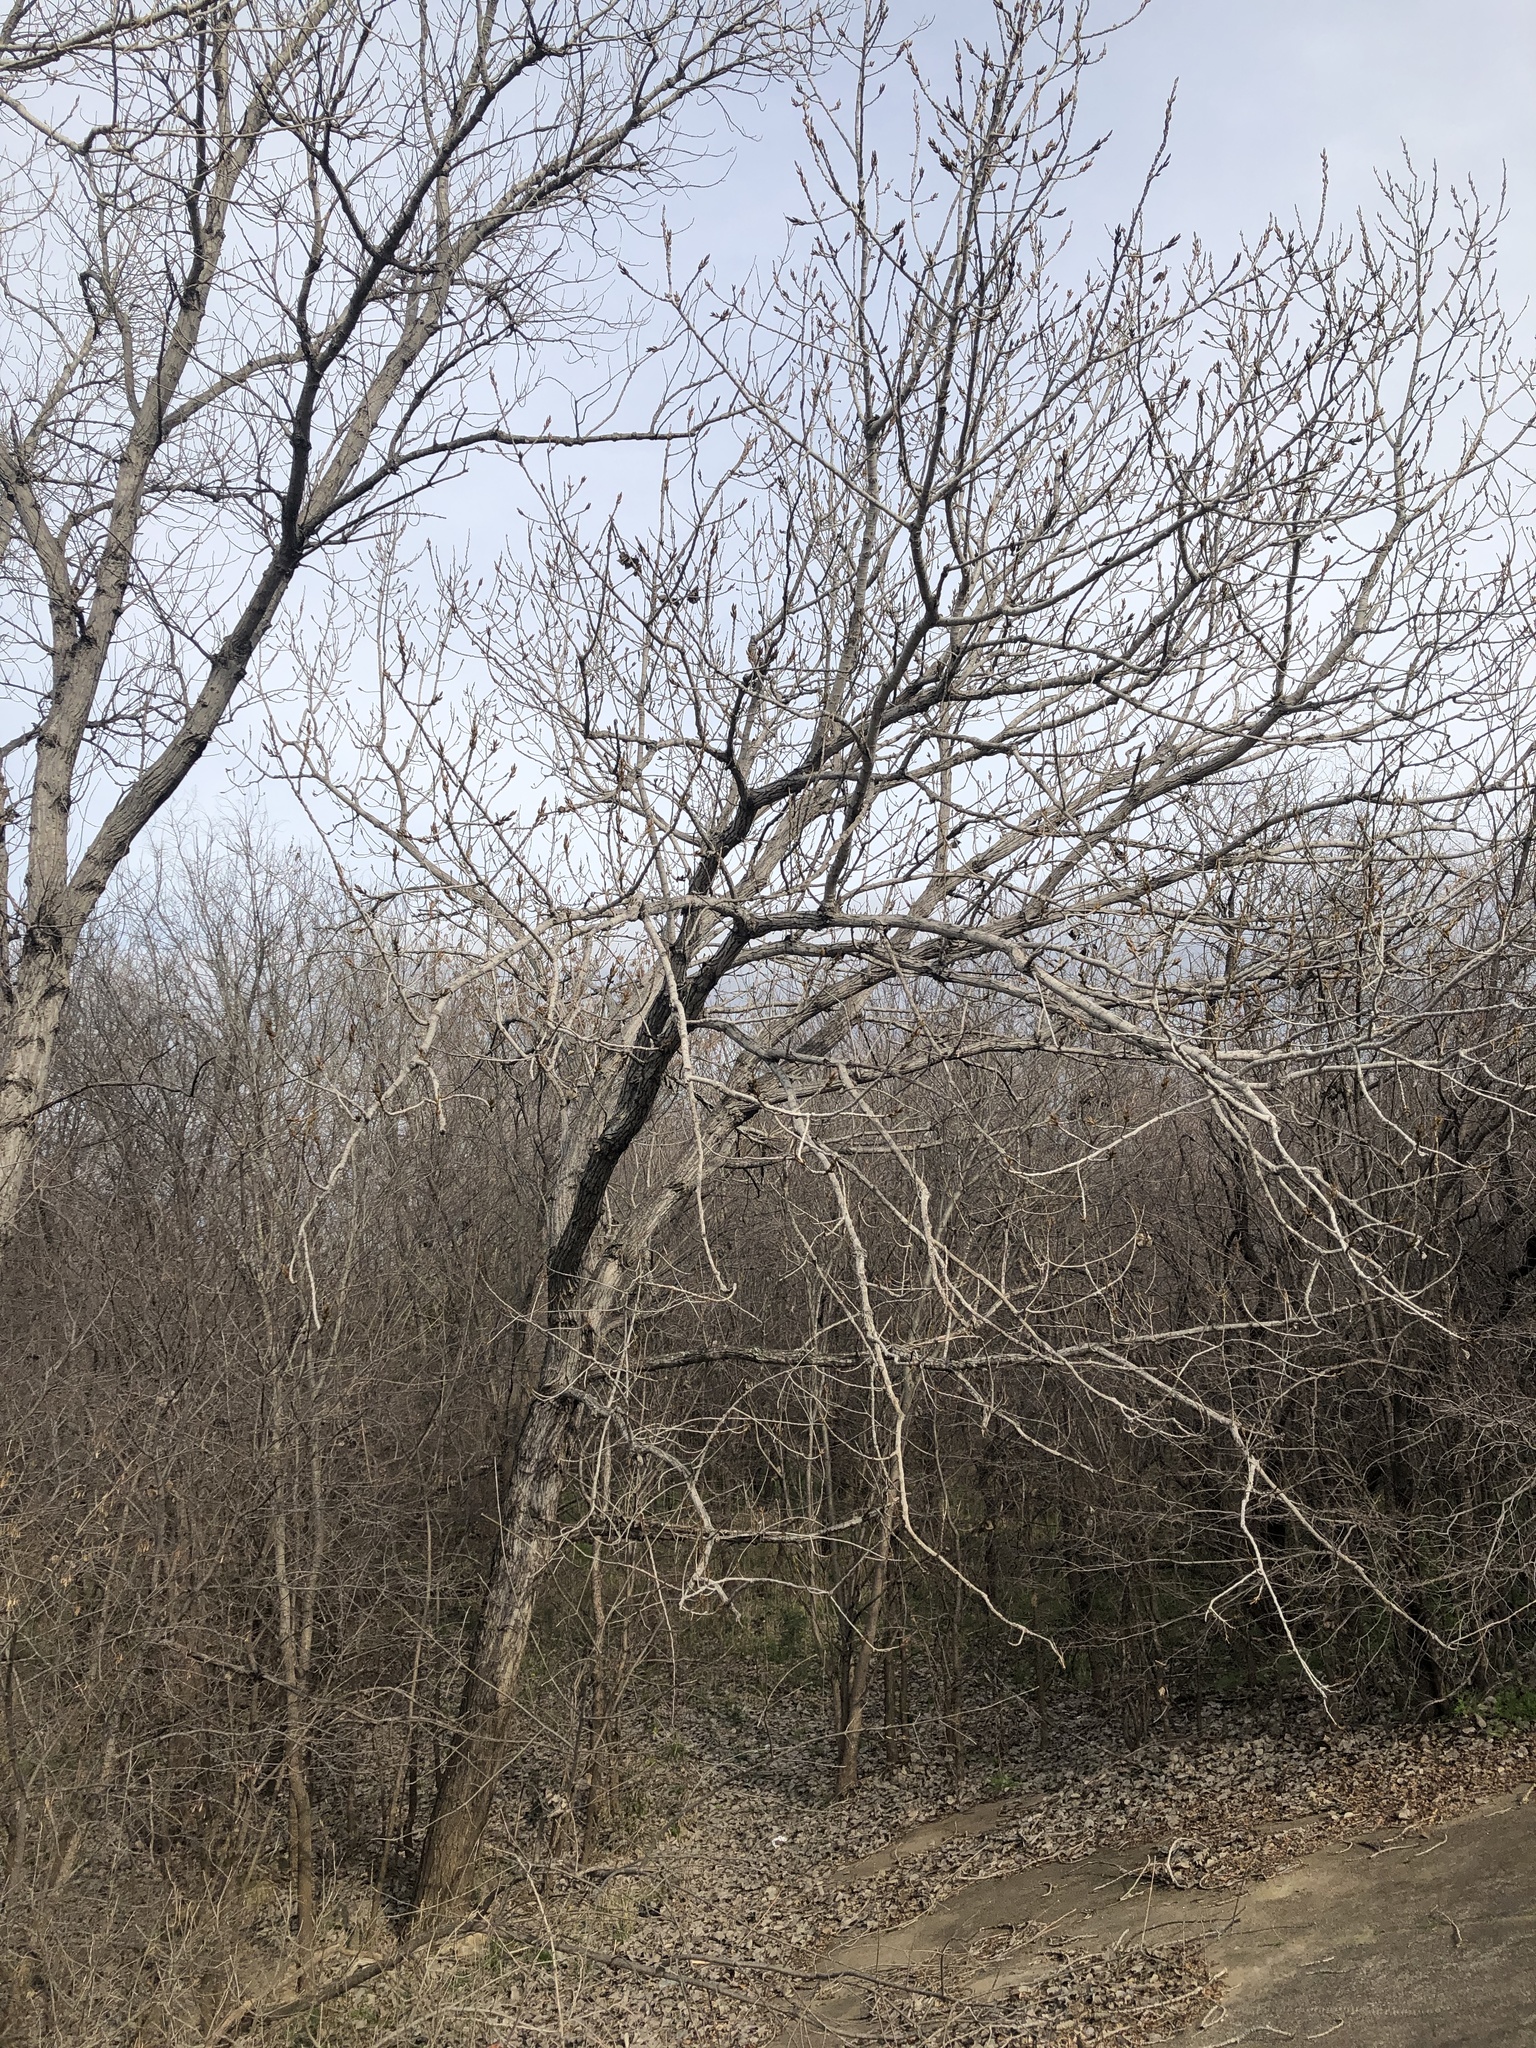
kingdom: Plantae
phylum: Tracheophyta
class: Magnoliopsida
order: Malpighiales
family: Salicaceae
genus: Populus
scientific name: Populus deltoides
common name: Eastern cottonwood
